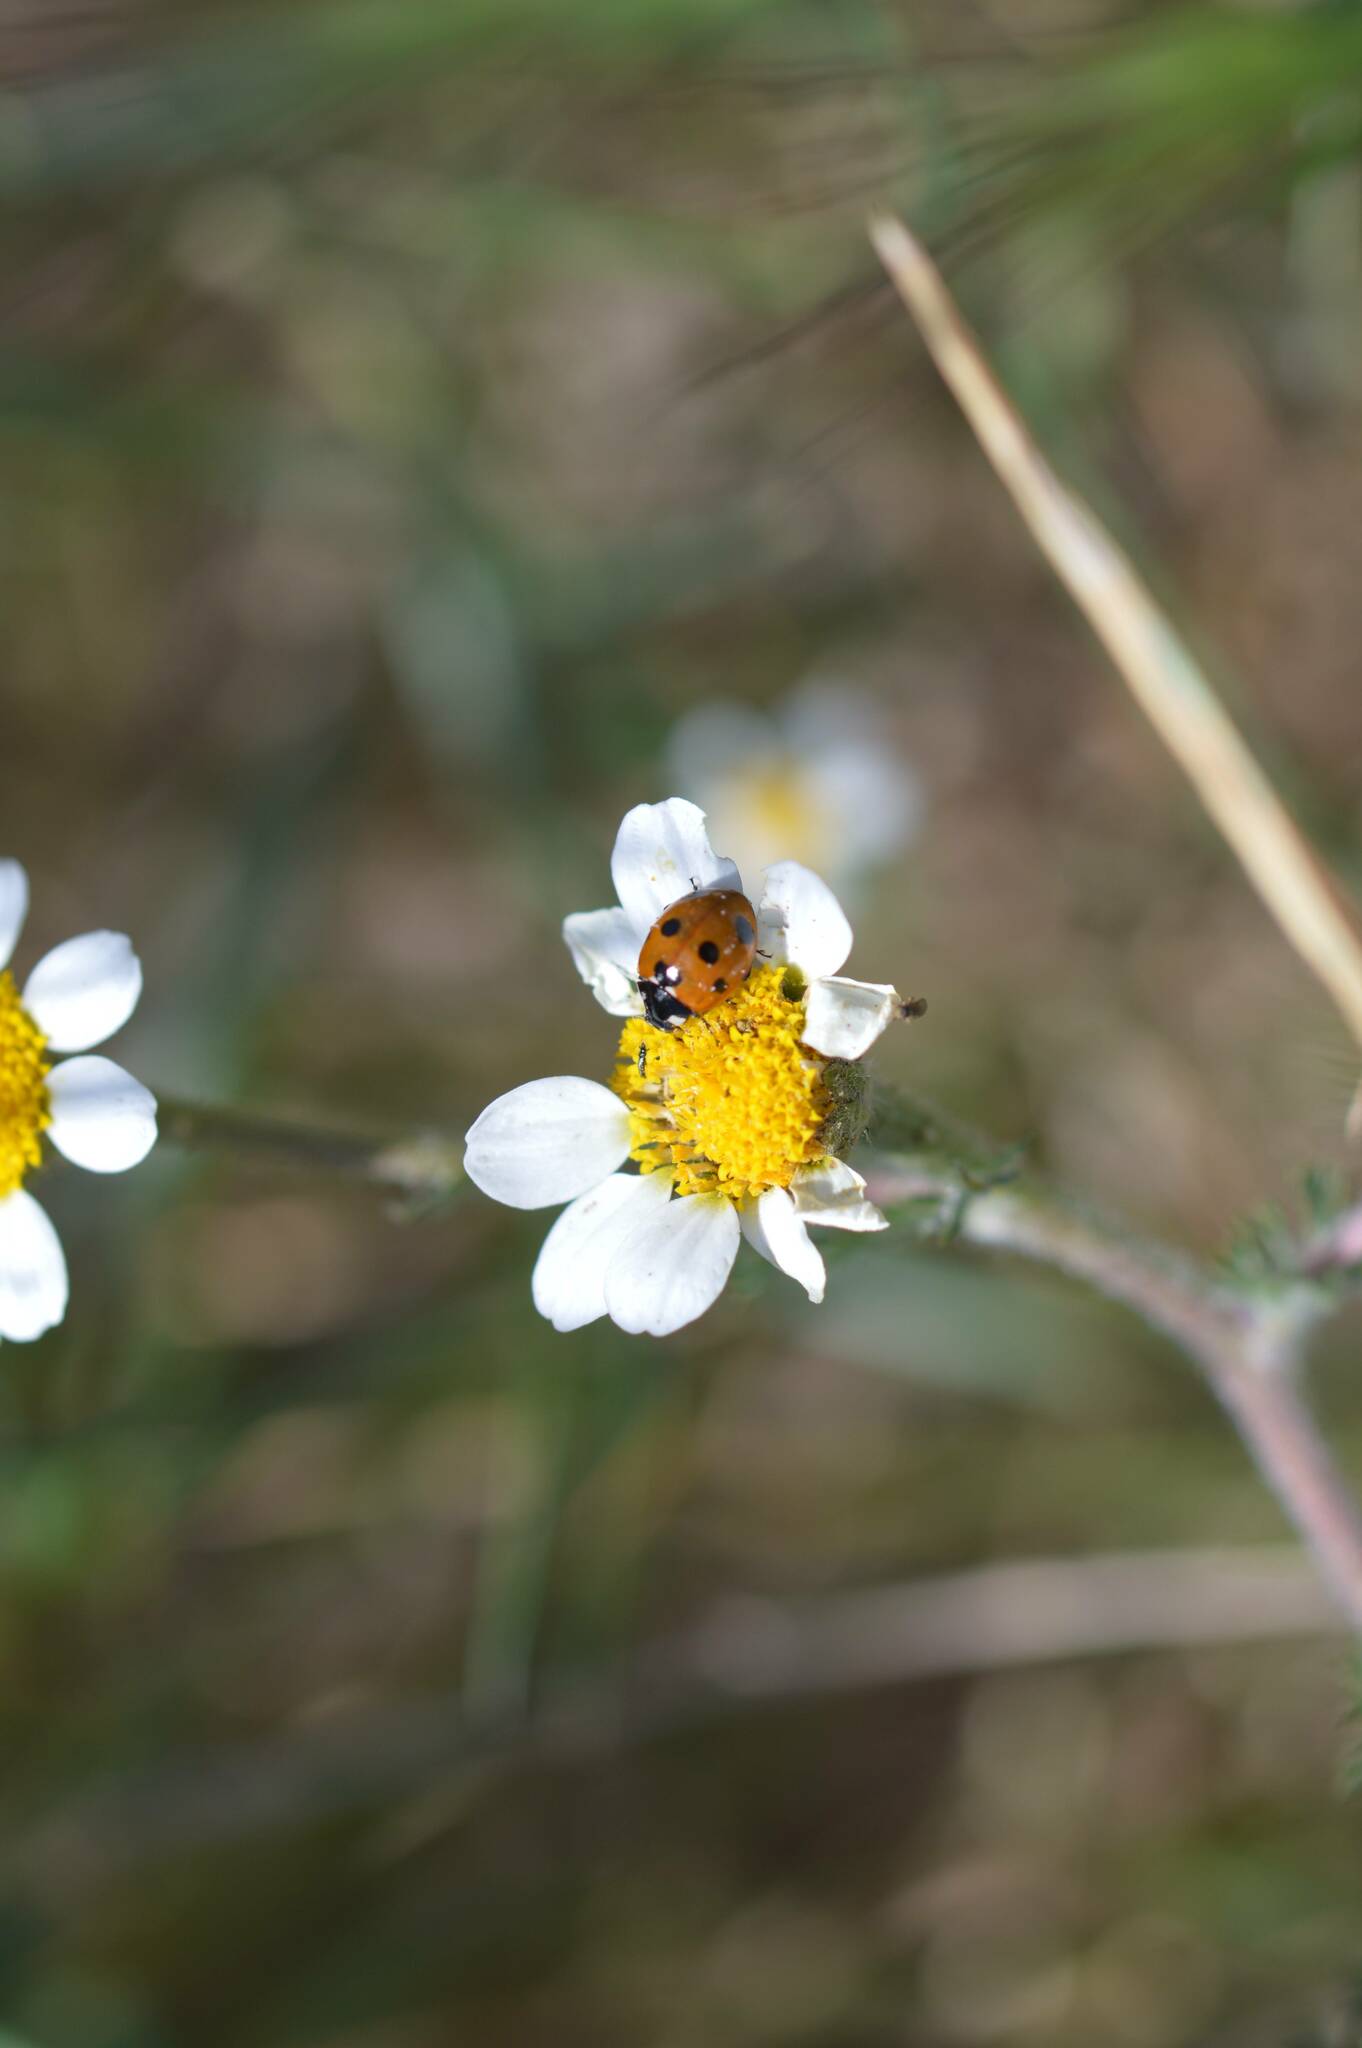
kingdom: Animalia
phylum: Arthropoda
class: Insecta
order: Coleoptera
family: Coccinellidae
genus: Coccinella
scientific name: Coccinella algerica
